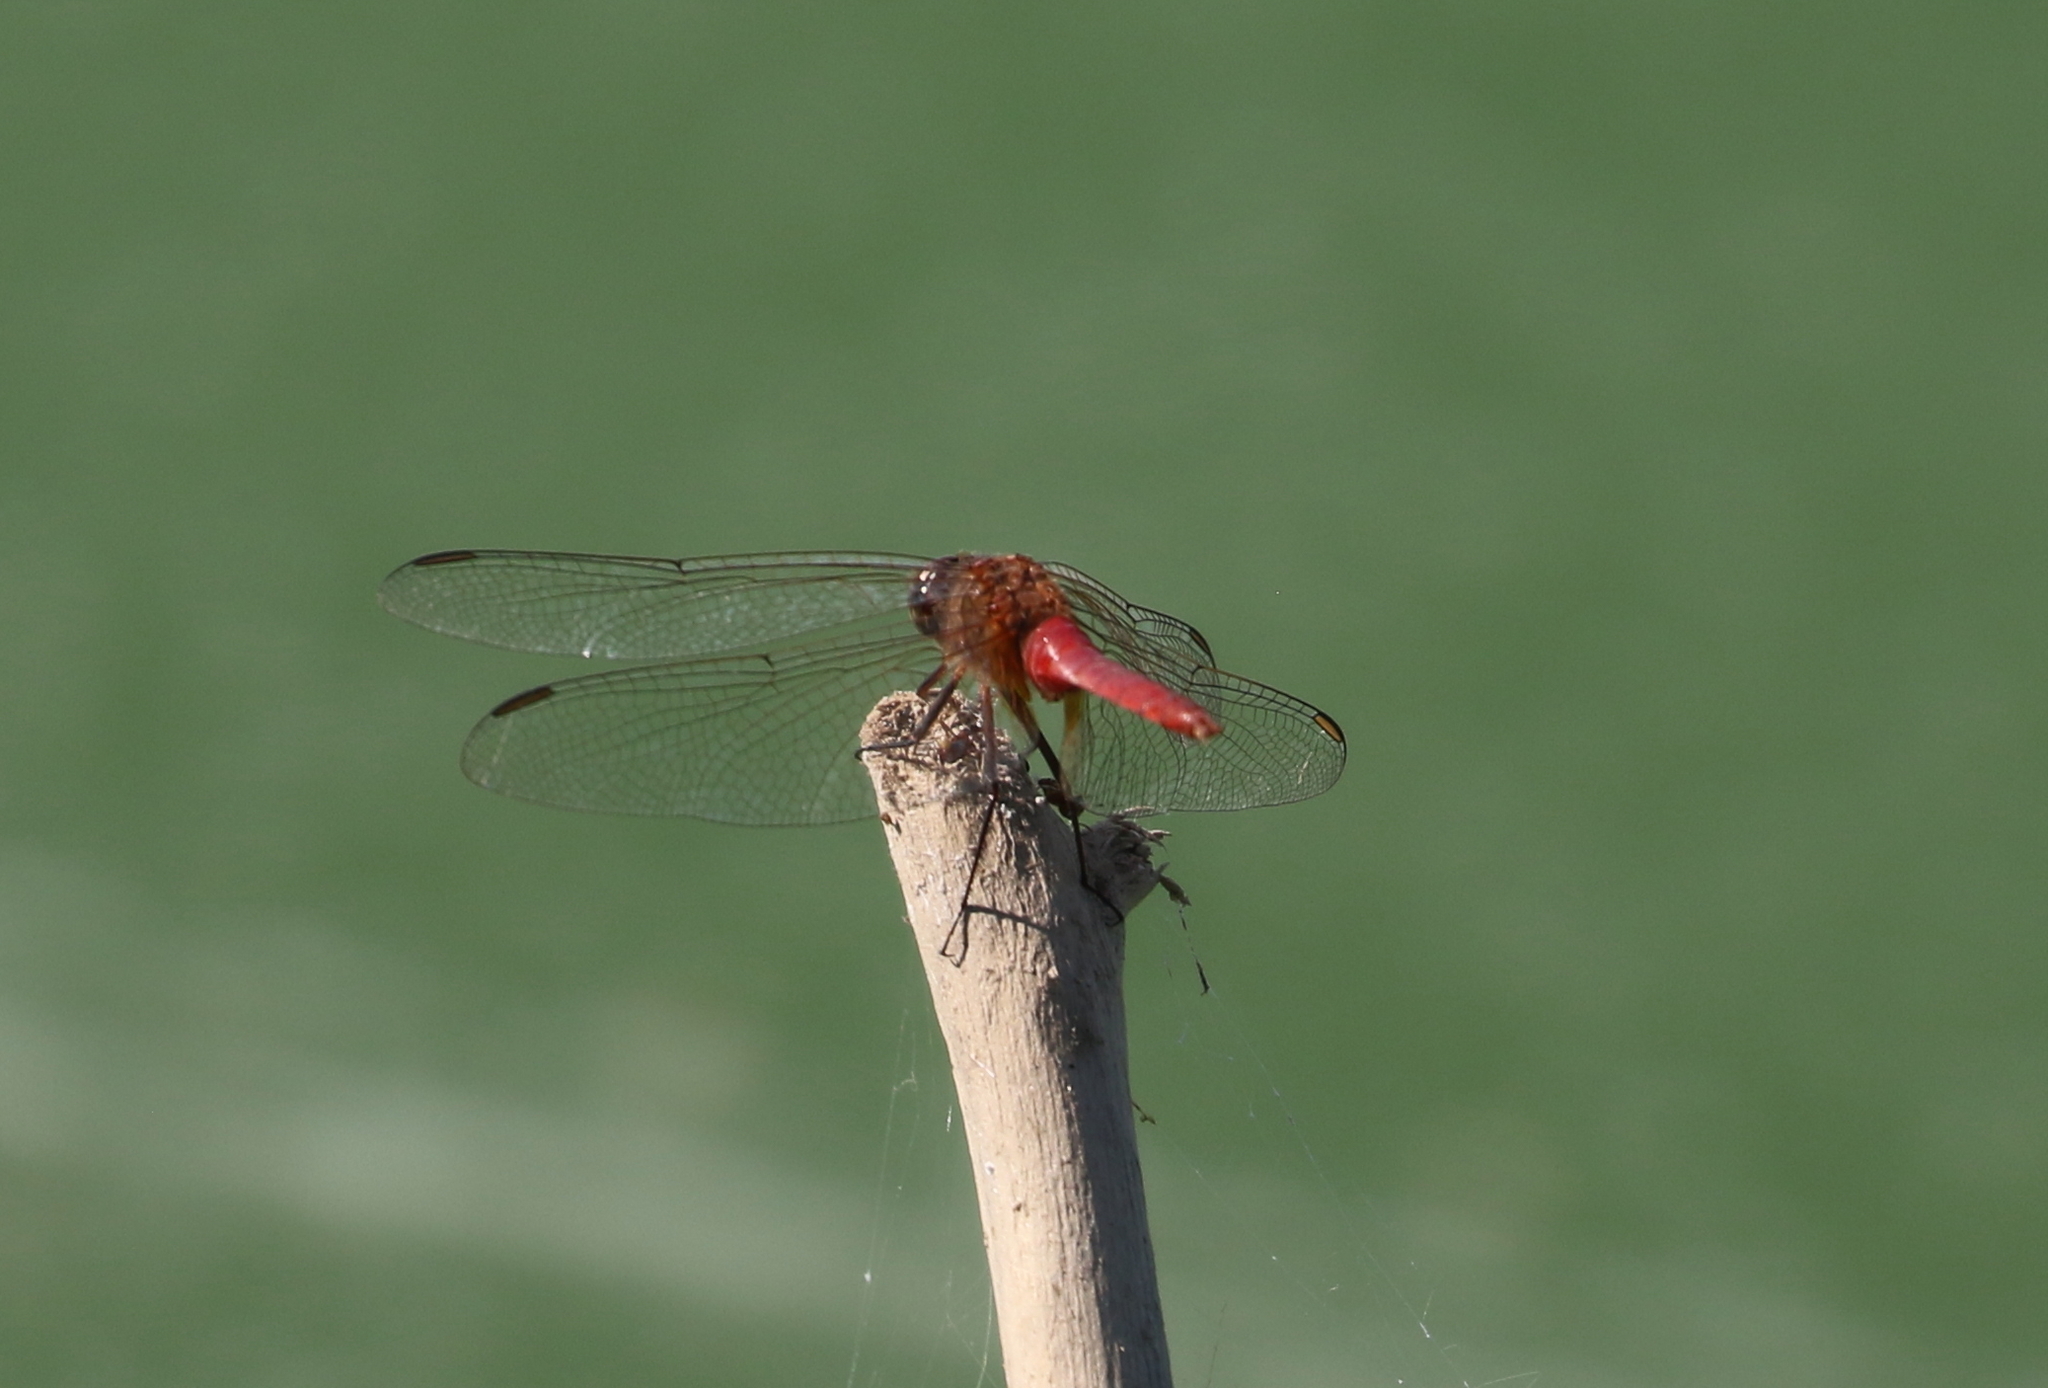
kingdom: Animalia
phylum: Arthropoda
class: Insecta
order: Odonata
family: Libellulidae
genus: Brachymesia
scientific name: Brachymesia furcata
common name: Red-taled pennant
